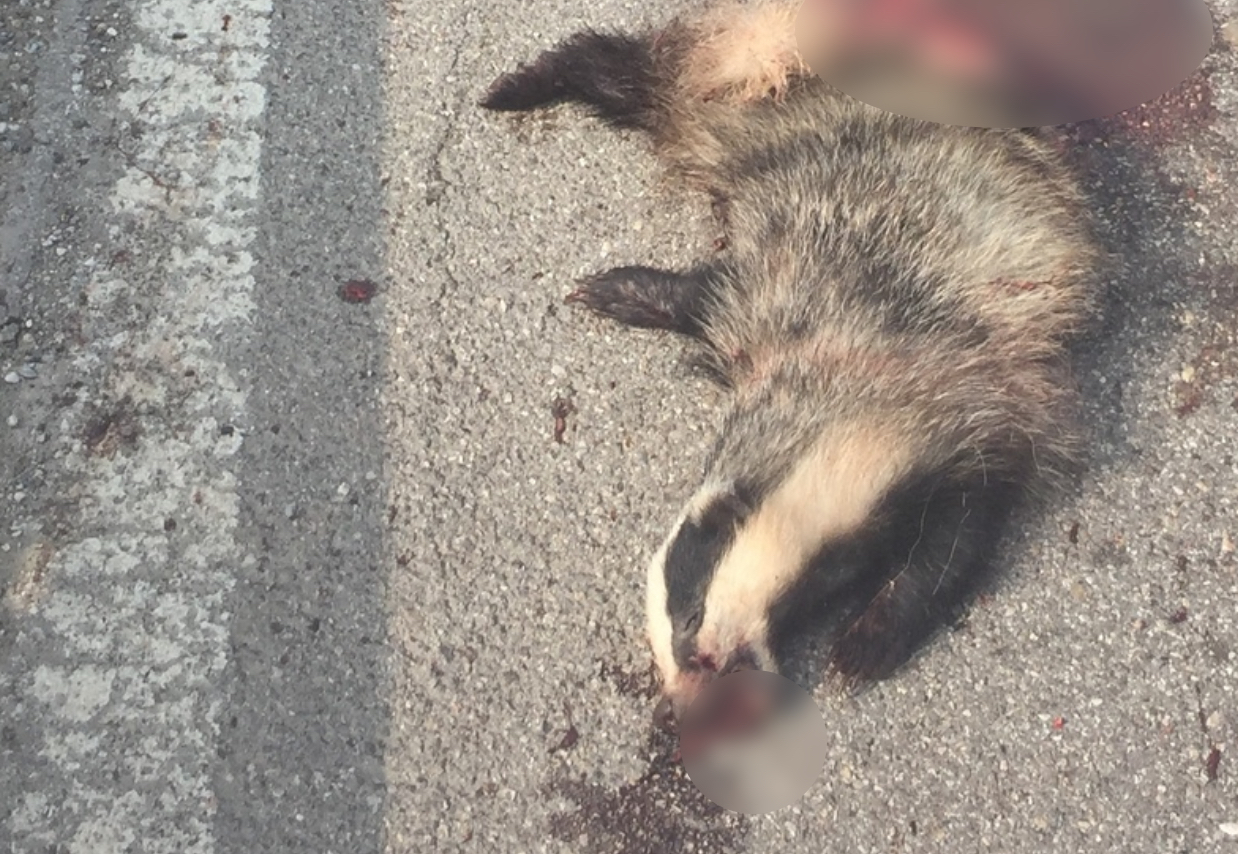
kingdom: Animalia
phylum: Chordata
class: Mammalia
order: Carnivora
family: Mustelidae
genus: Meles
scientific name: Meles meles
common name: Eurasian badger
